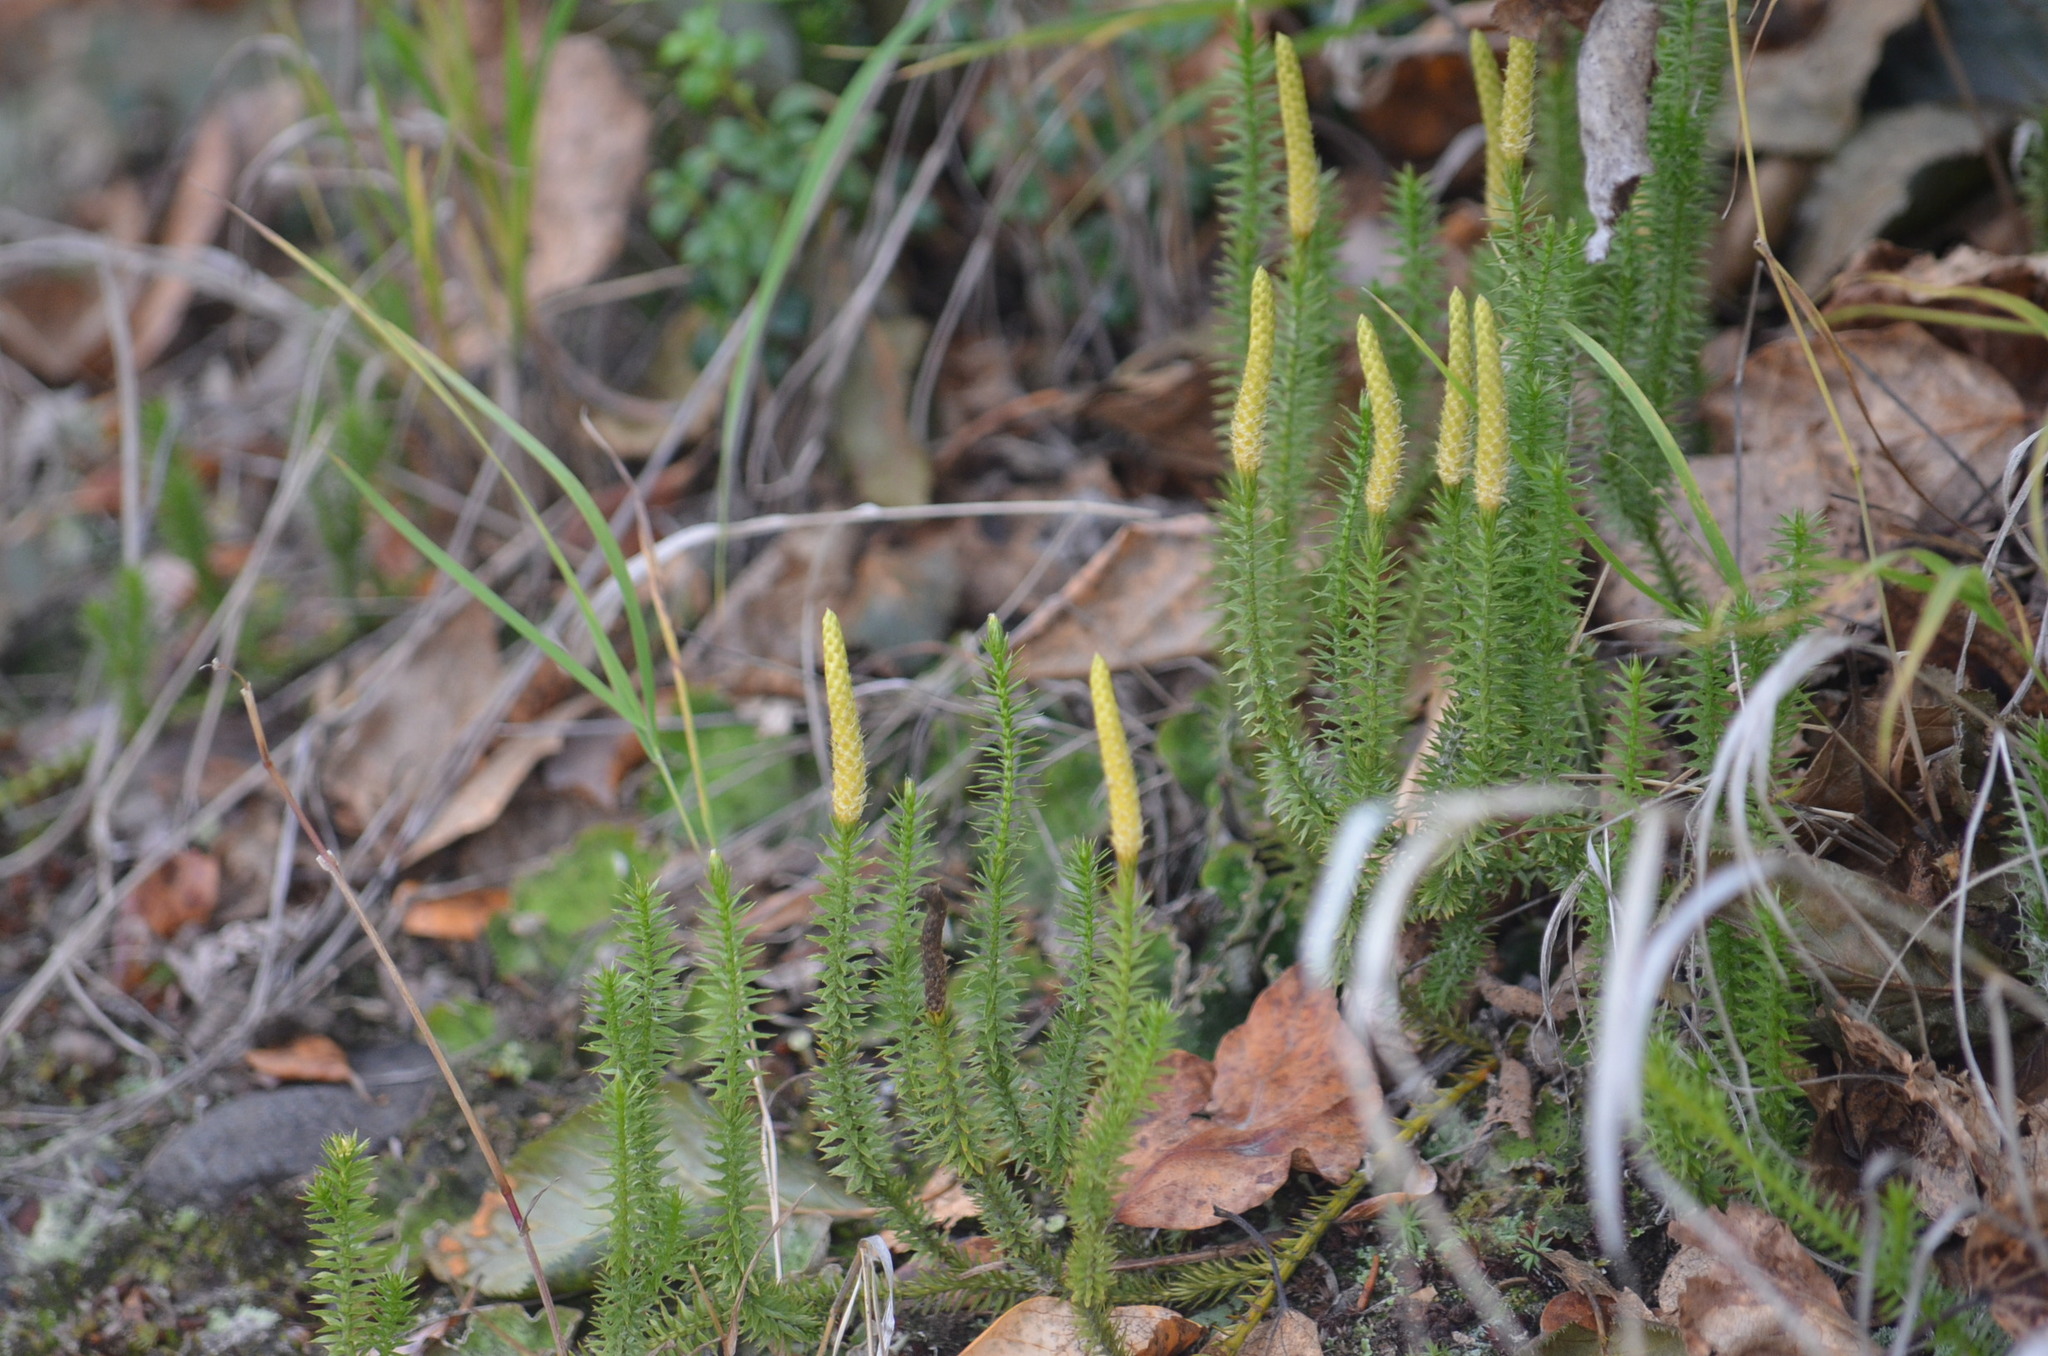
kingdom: Plantae
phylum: Tracheophyta
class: Lycopodiopsida
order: Lycopodiales
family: Lycopodiaceae
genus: Spinulum
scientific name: Spinulum annotinum
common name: Interrupted club-moss
